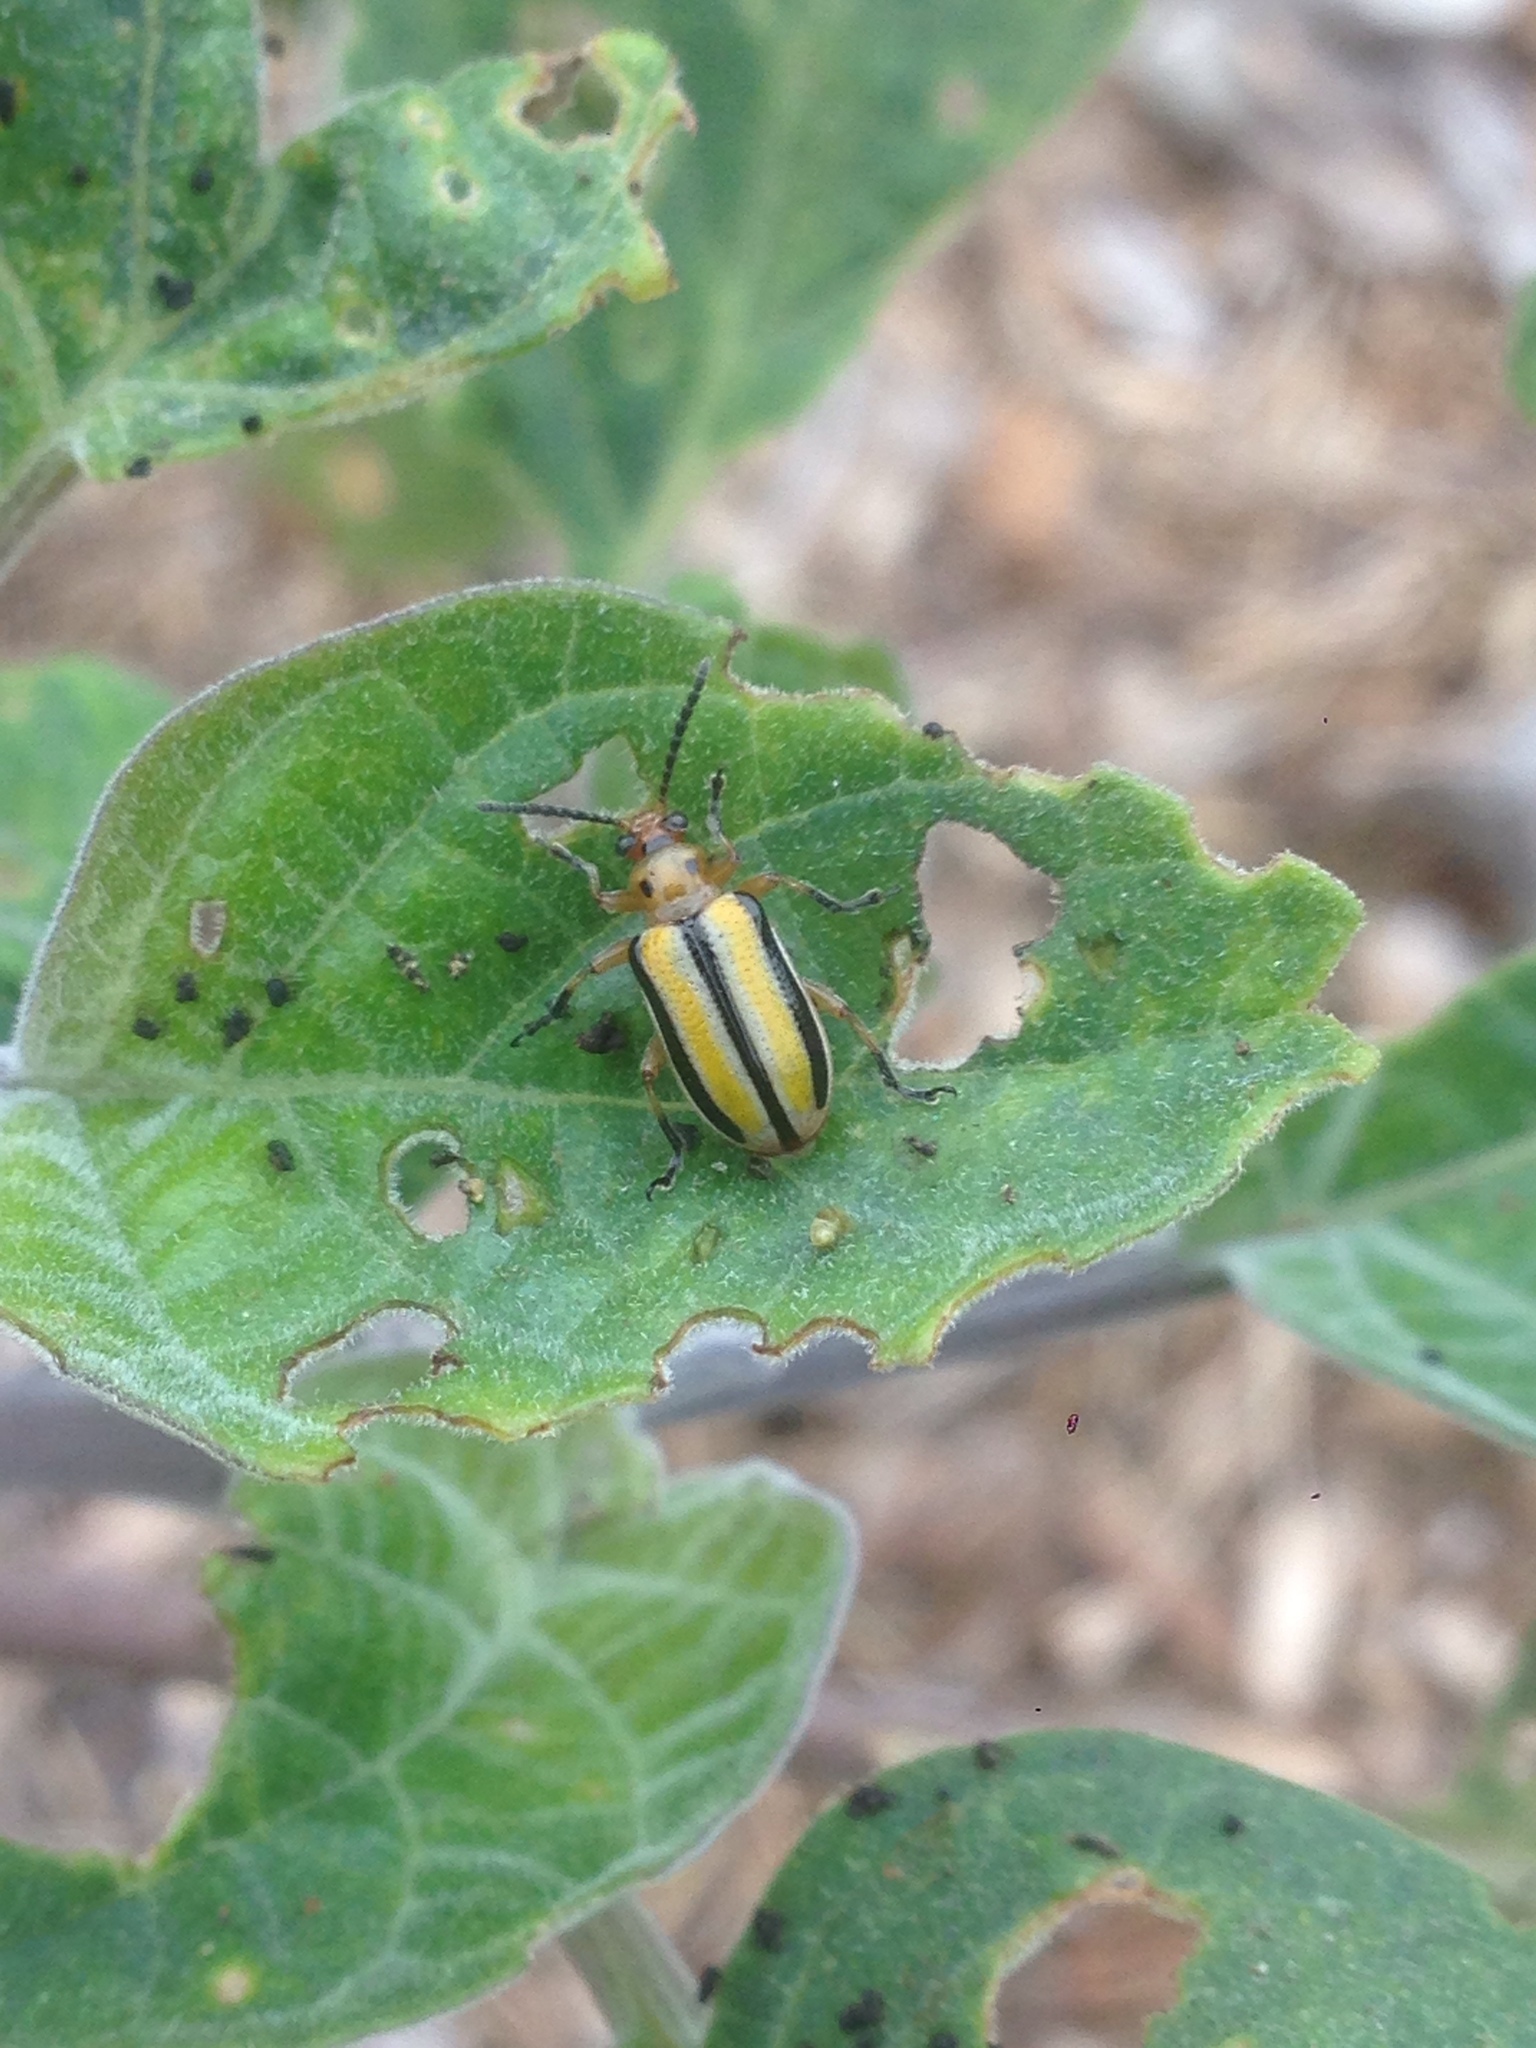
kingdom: Animalia
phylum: Arthropoda
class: Insecta
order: Coleoptera
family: Chrysomelidae
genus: Lema
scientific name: Lema daturaphila
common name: Leaf beetle
